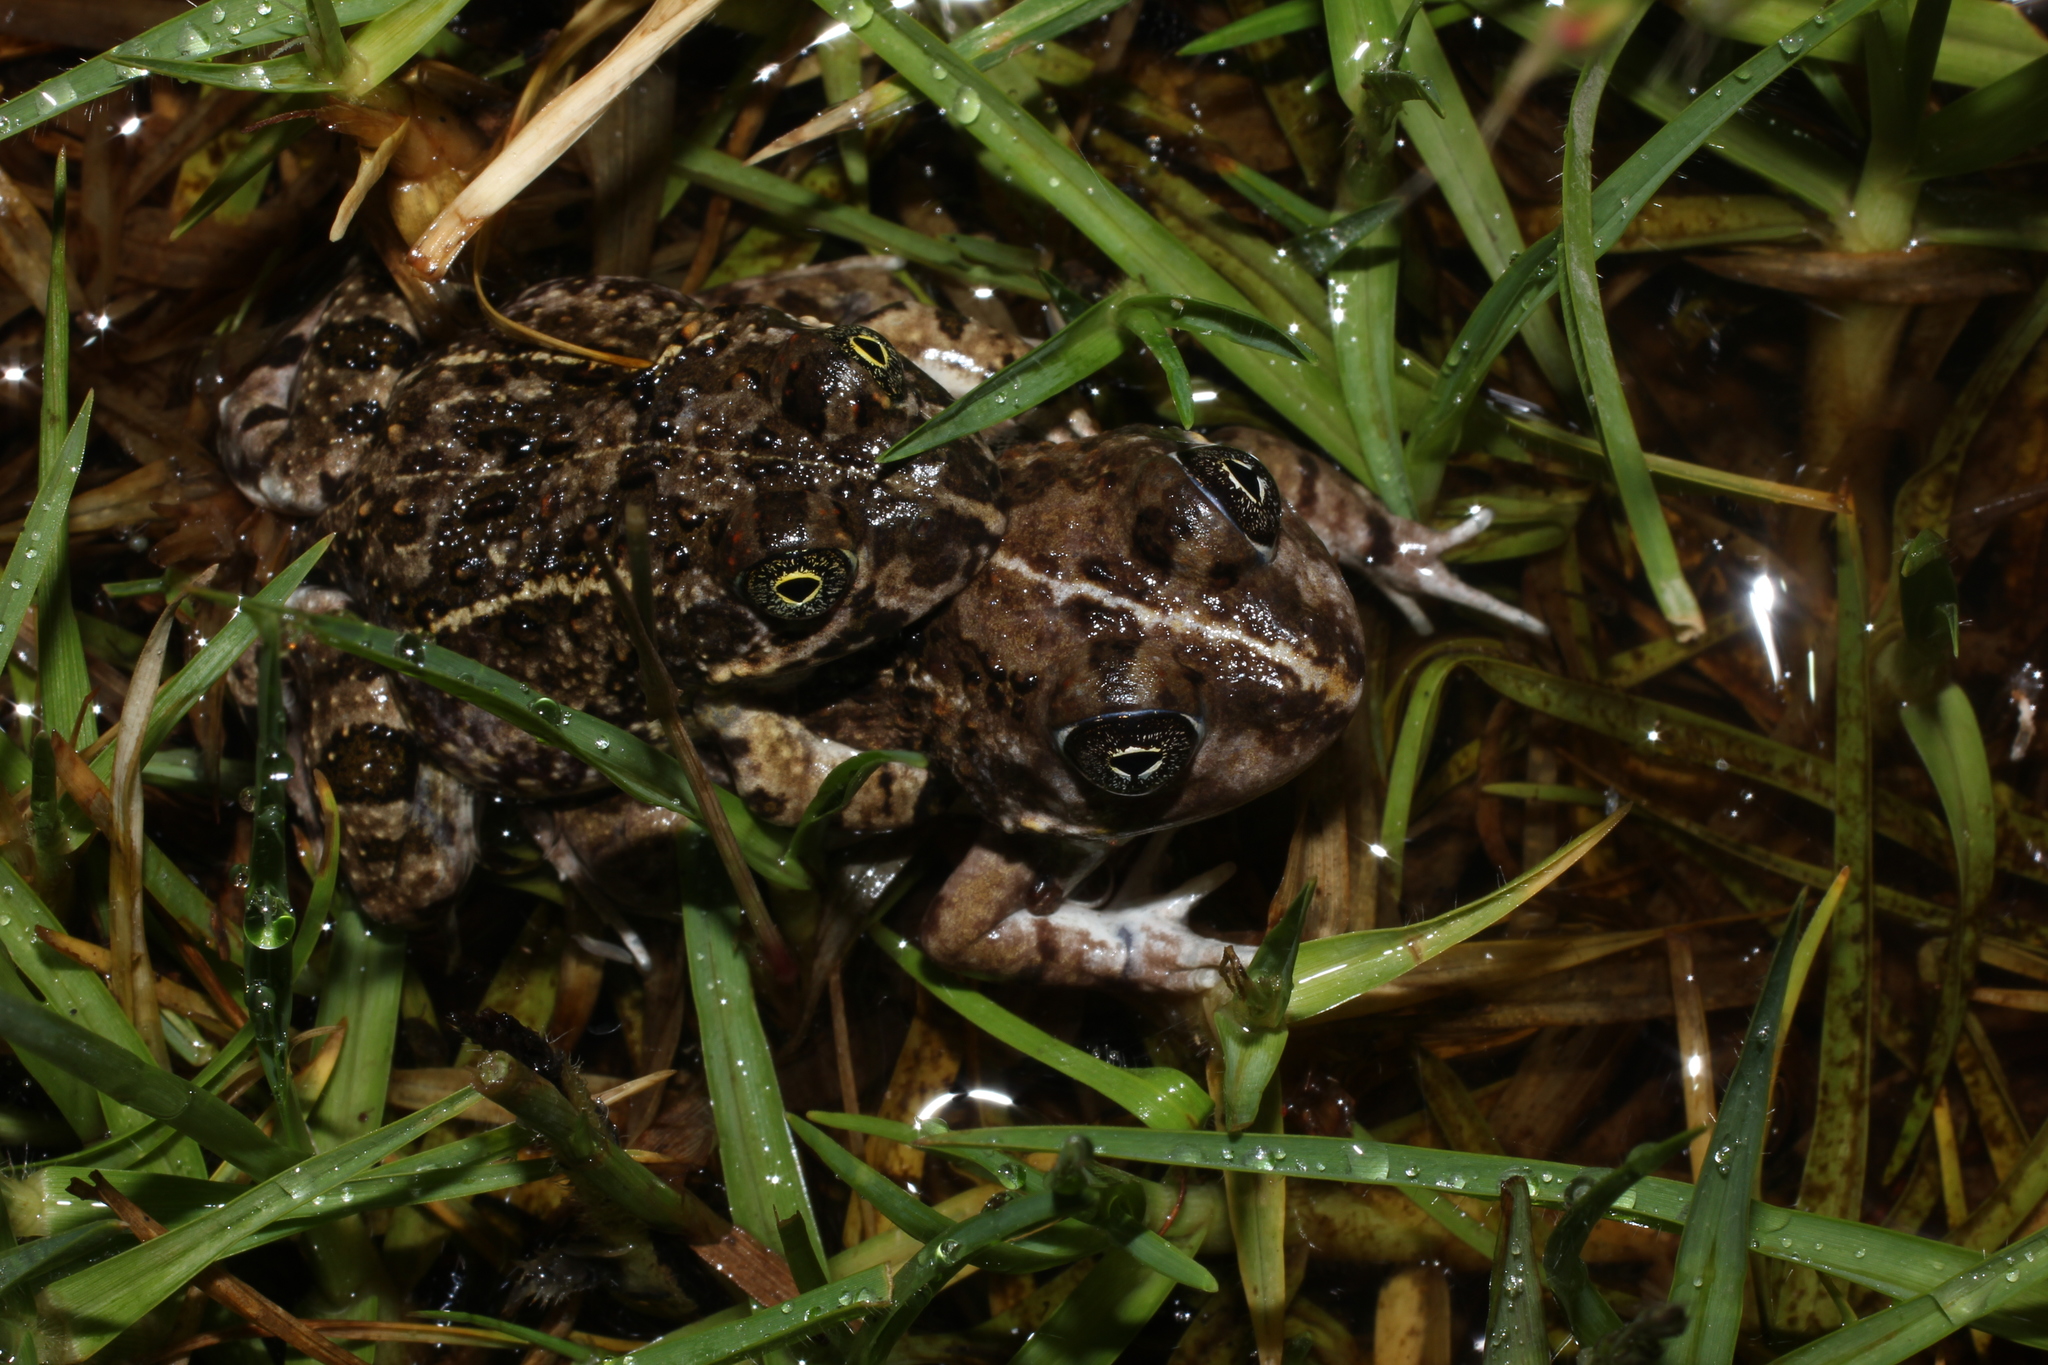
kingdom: Animalia
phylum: Chordata
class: Amphibia
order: Anura
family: Pyxicephalidae
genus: Tomopterna
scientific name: Tomopterna delalandii
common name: Delalande's burrowing bullfrog
